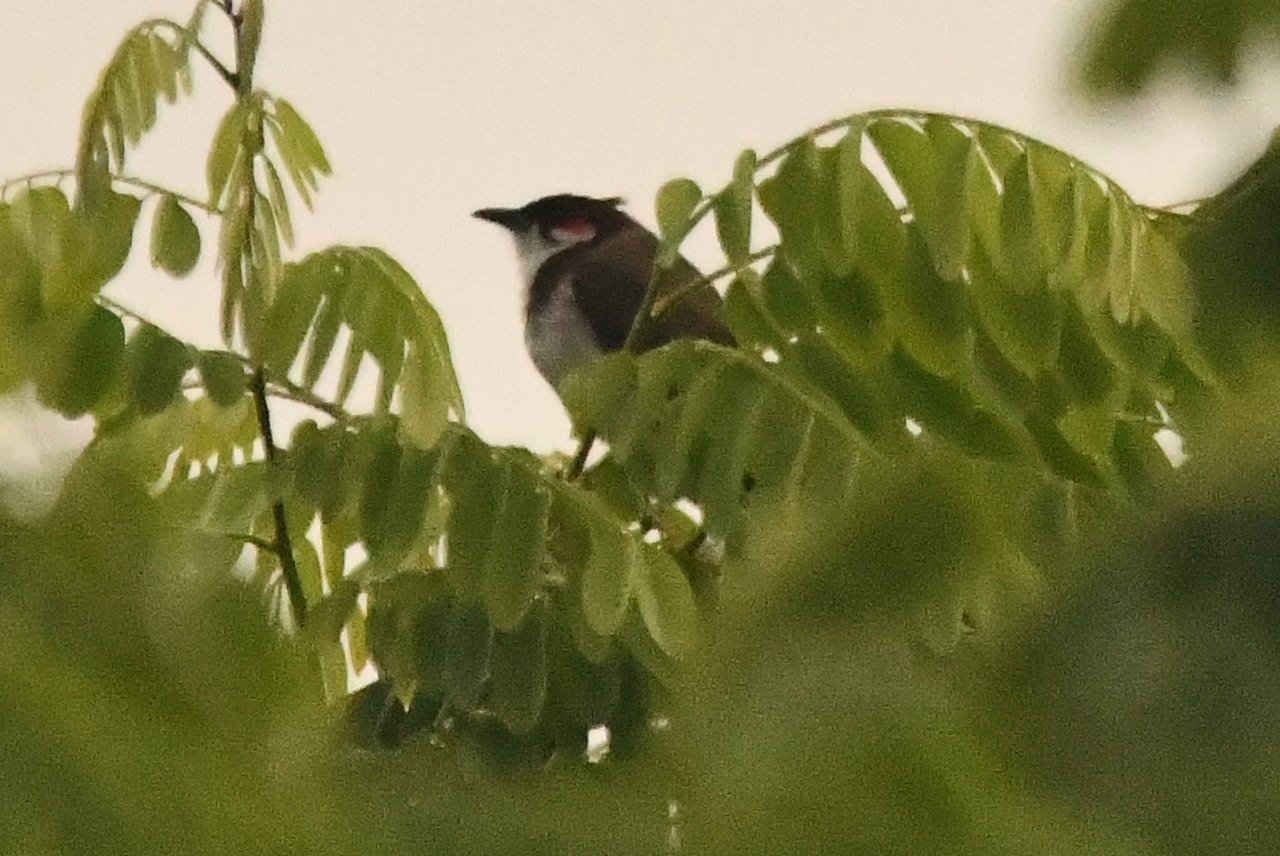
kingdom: Animalia
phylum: Chordata
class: Aves
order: Passeriformes
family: Pycnonotidae
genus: Pycnonotus
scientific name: Pycnonotus jocosus
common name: Red-whiskered bulbul
